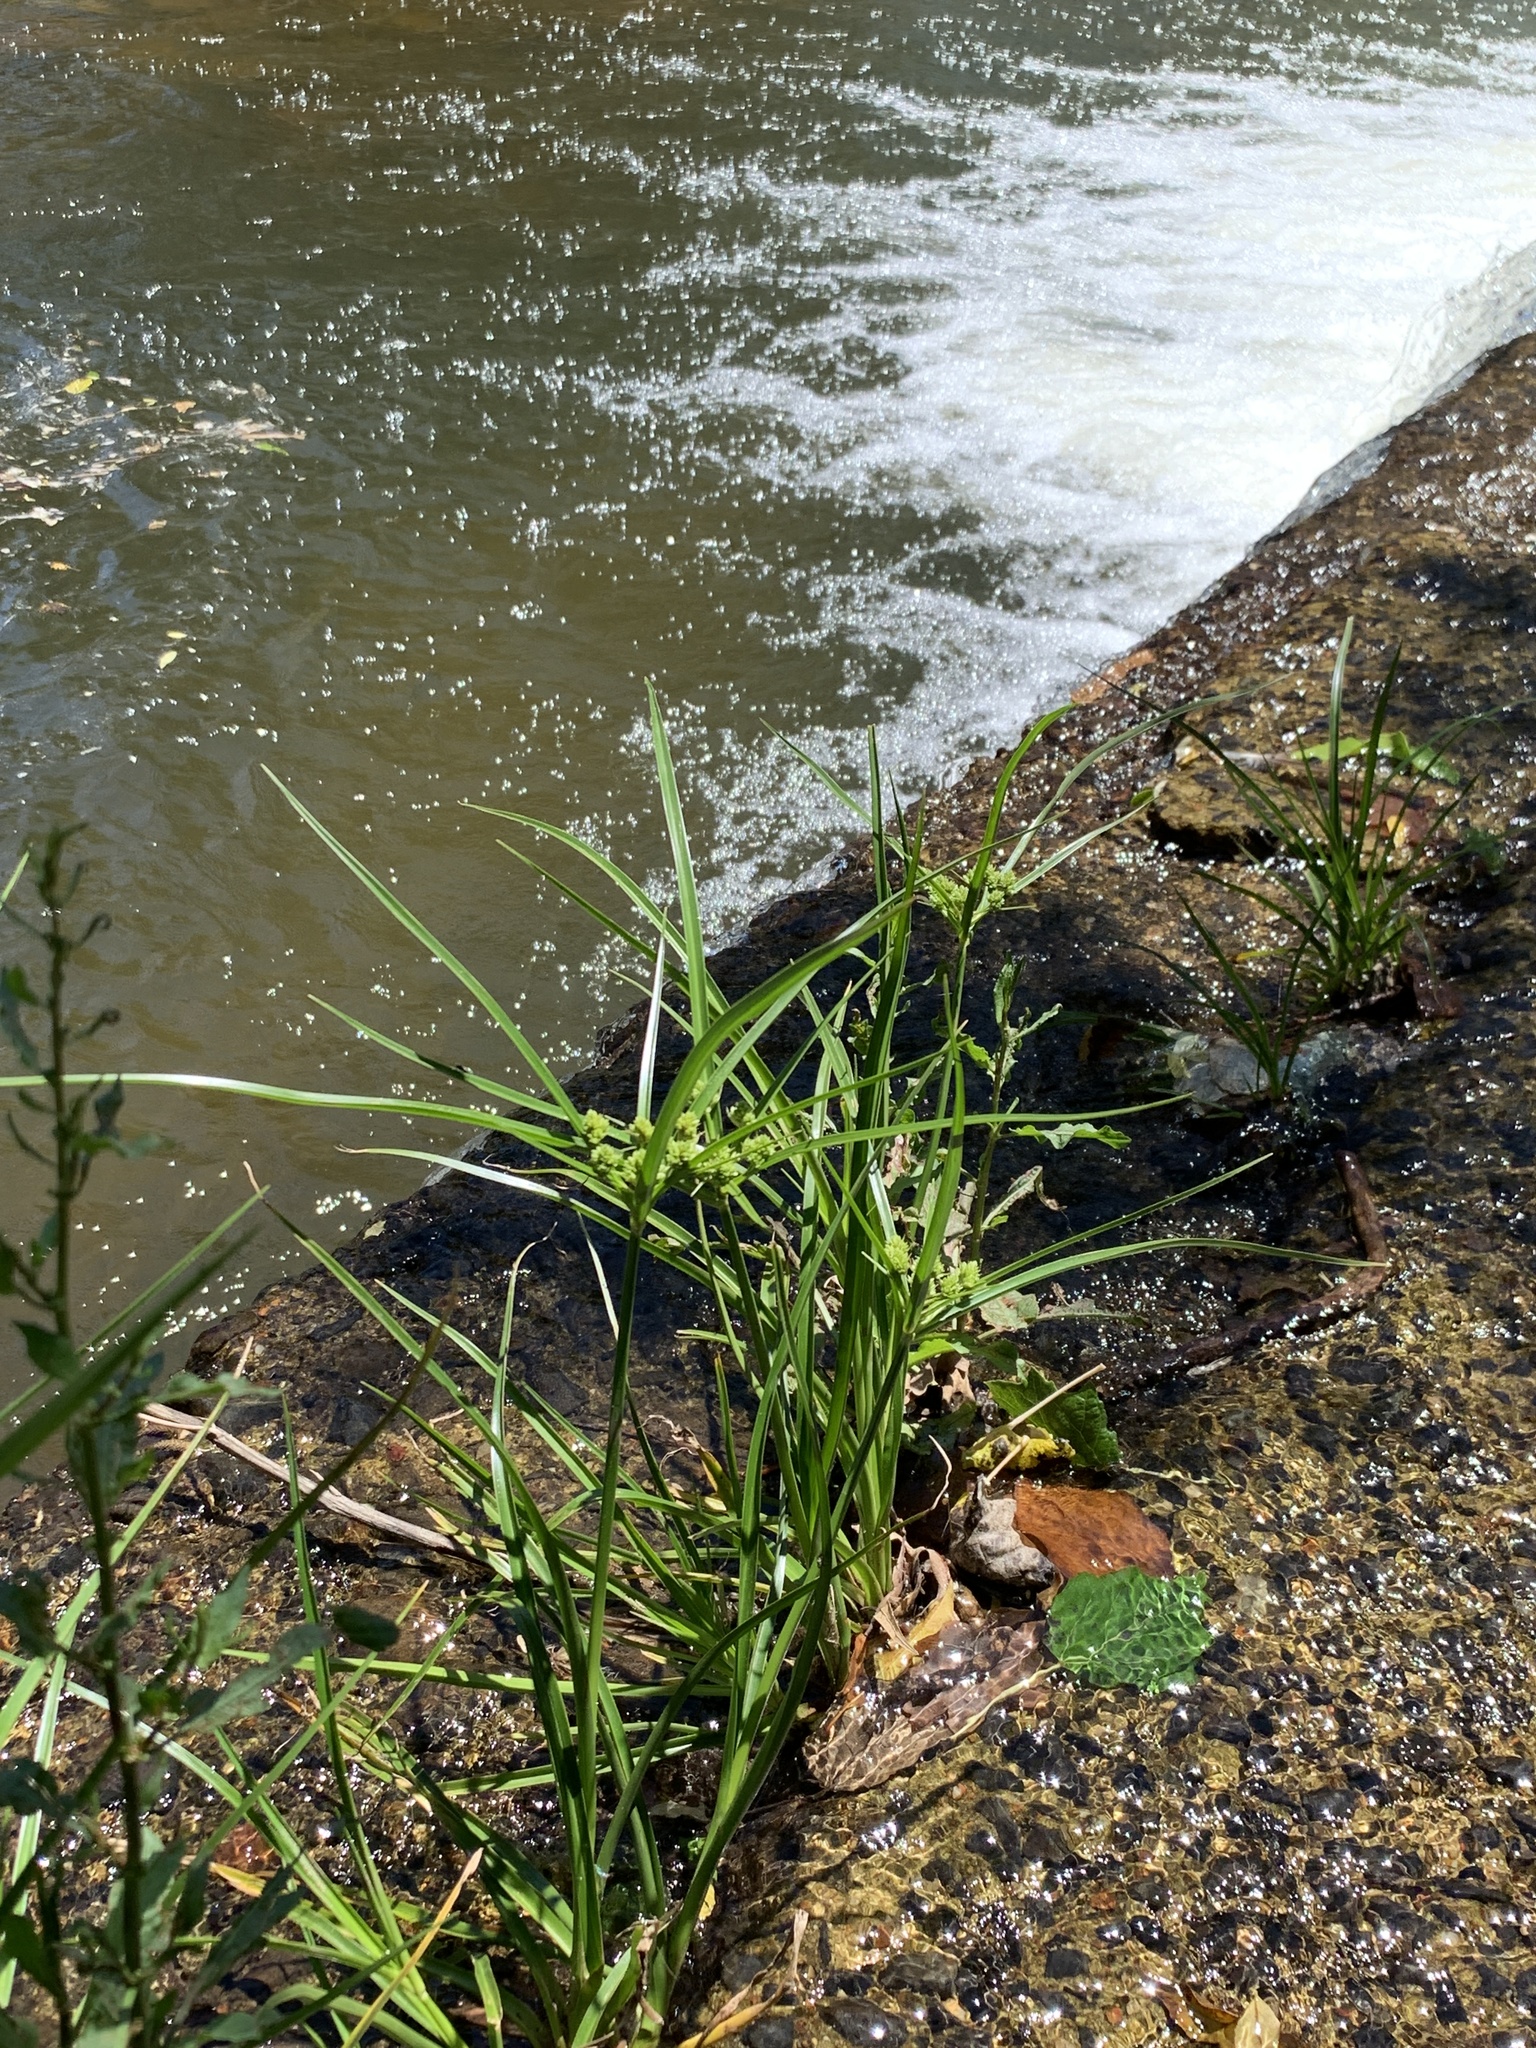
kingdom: Plantae
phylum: Tracheophyta
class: Liliopsida
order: Poales
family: Cyperaceae
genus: Cyperus
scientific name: Cyperus eragrostis
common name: Tall flatsedge
